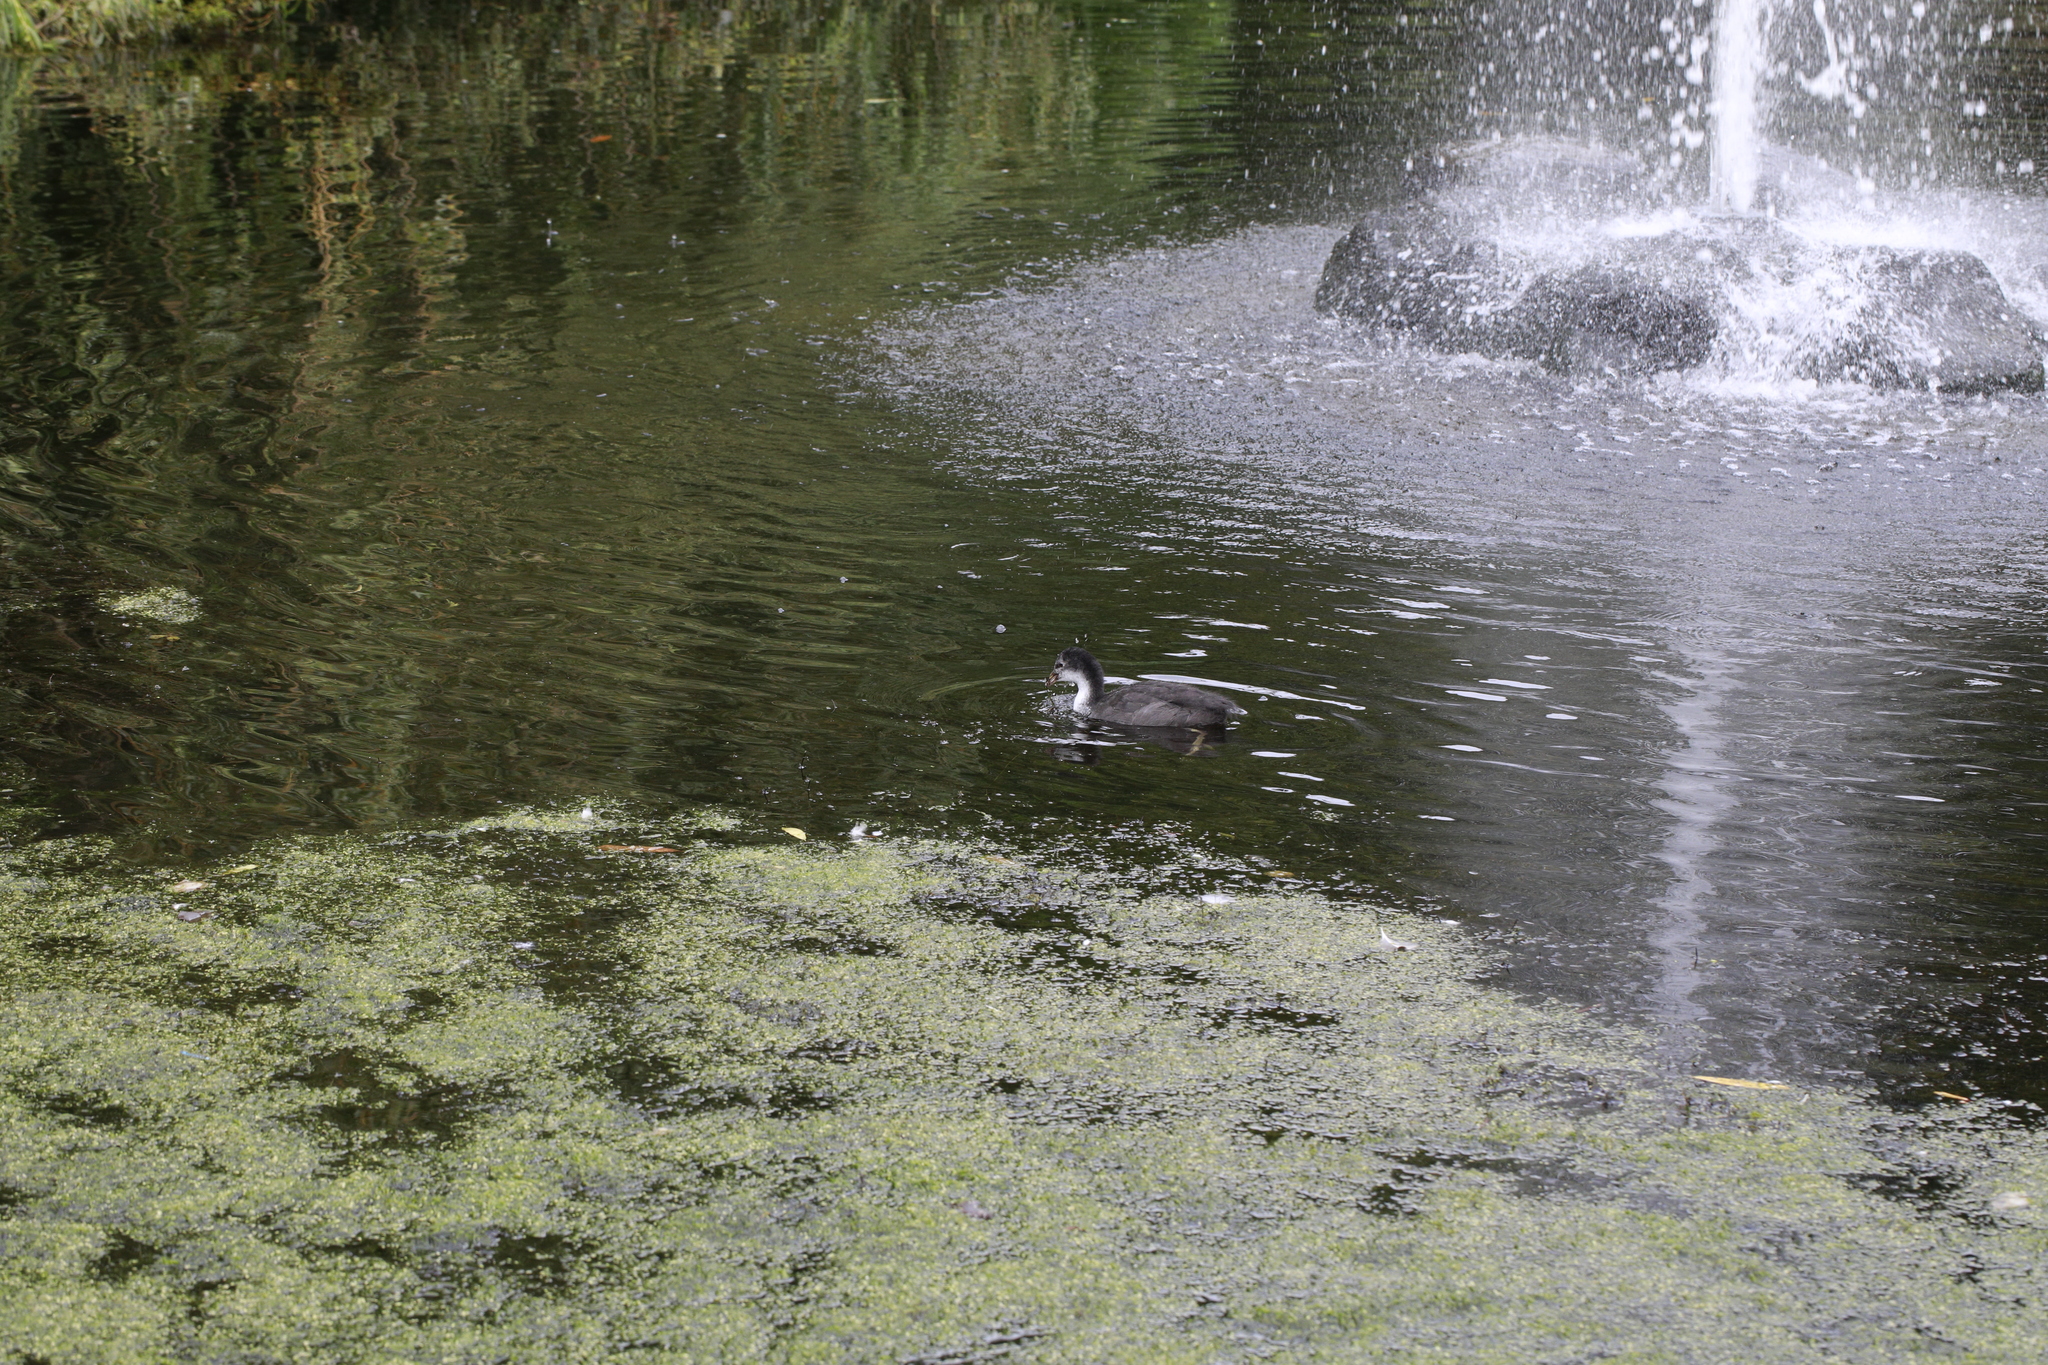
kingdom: Animalia
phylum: Chordata
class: Aves
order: Gruiformes
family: Rallidae
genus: Fulica
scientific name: Fulica atra
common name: Eurasian coot
